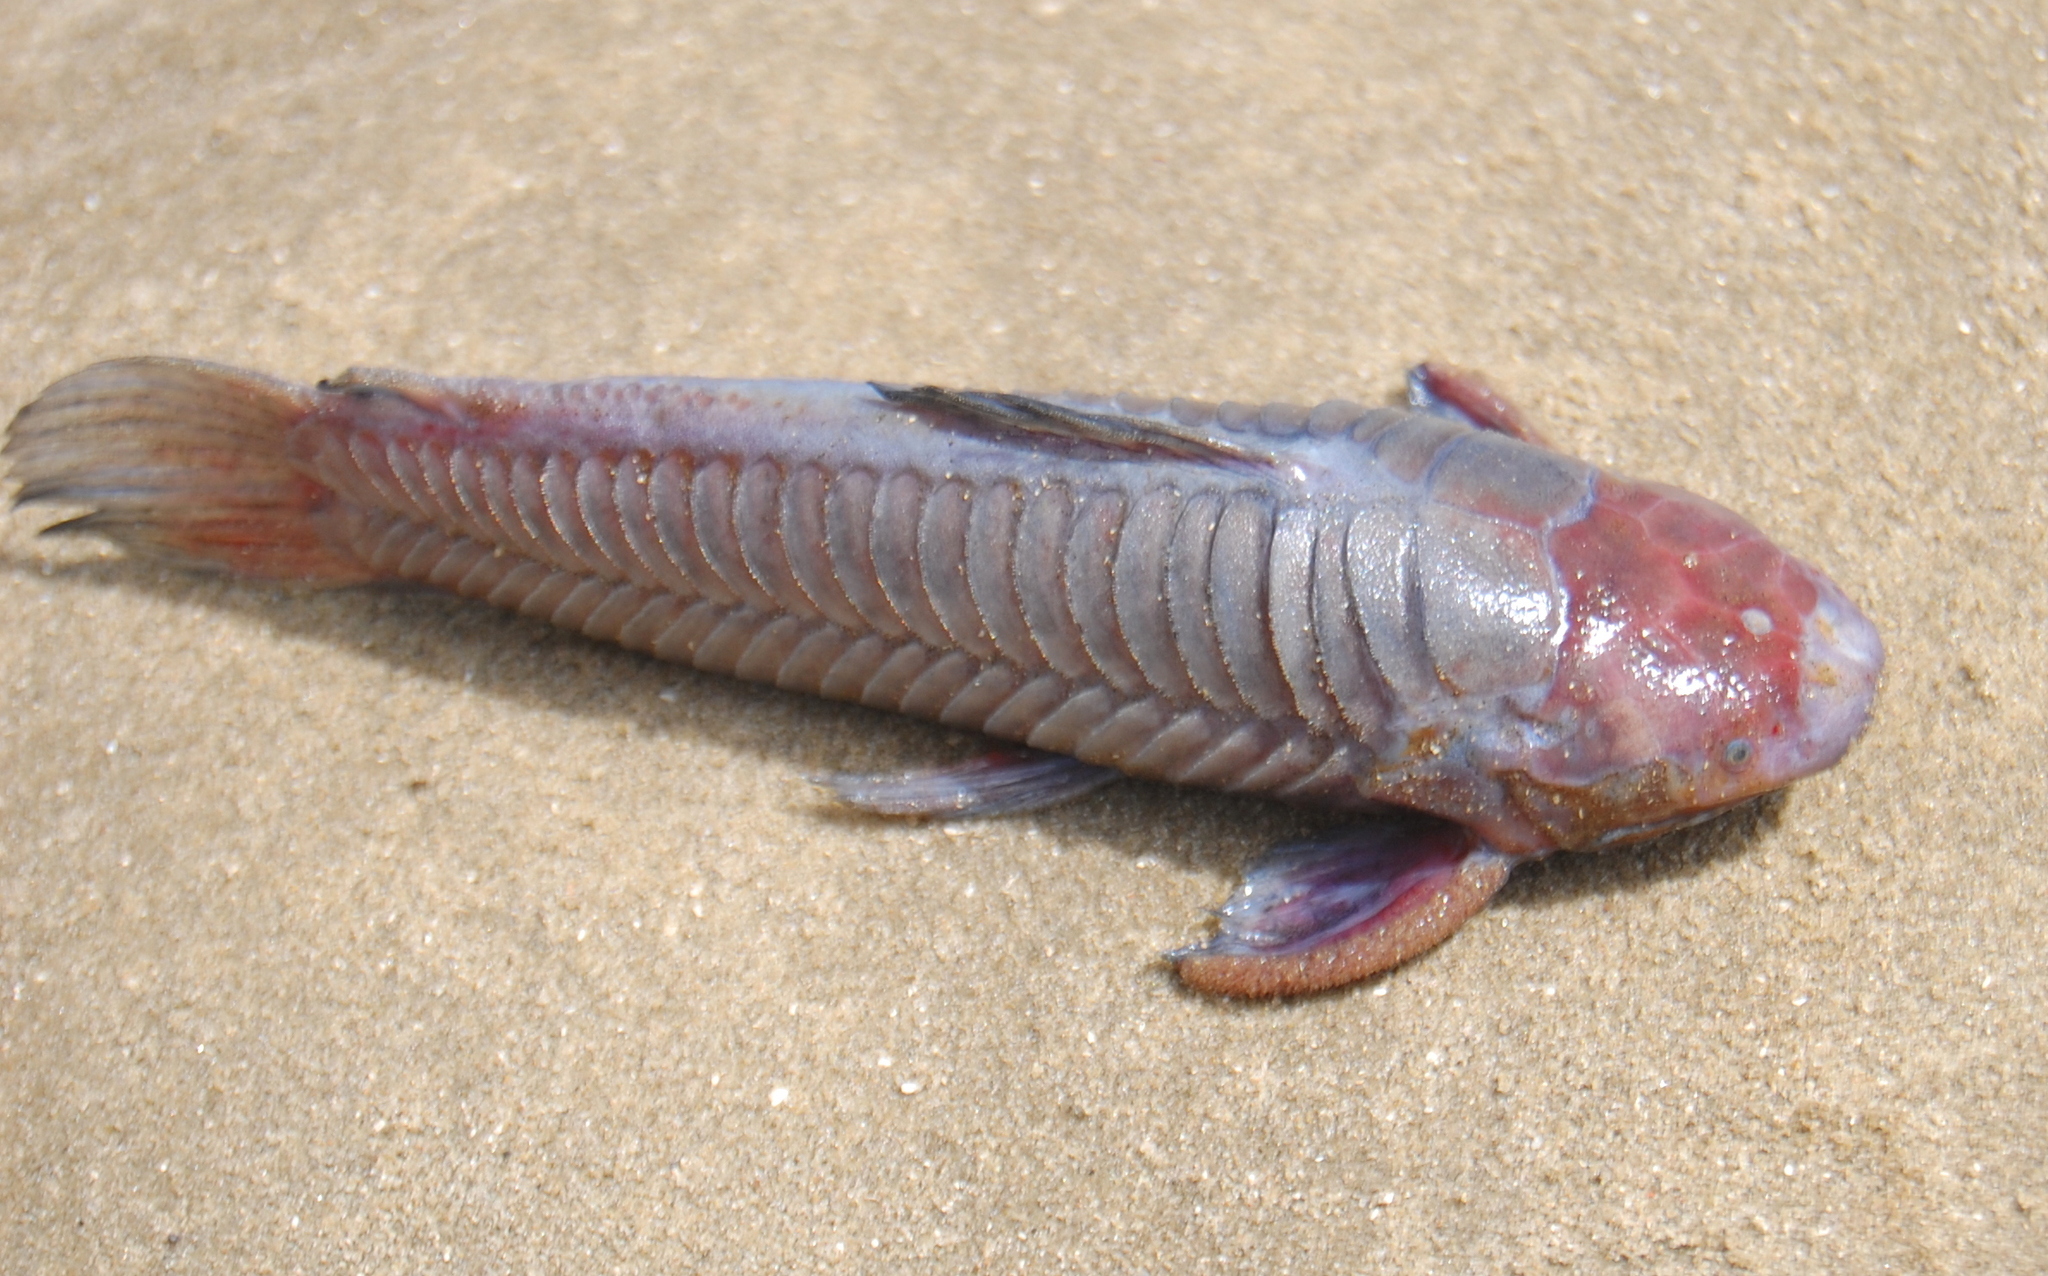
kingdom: Animalia
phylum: Chordata
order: Siluriformes
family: Callichthyidae
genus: Callichthys
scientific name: Callichthys callichthys
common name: Cascarudo
